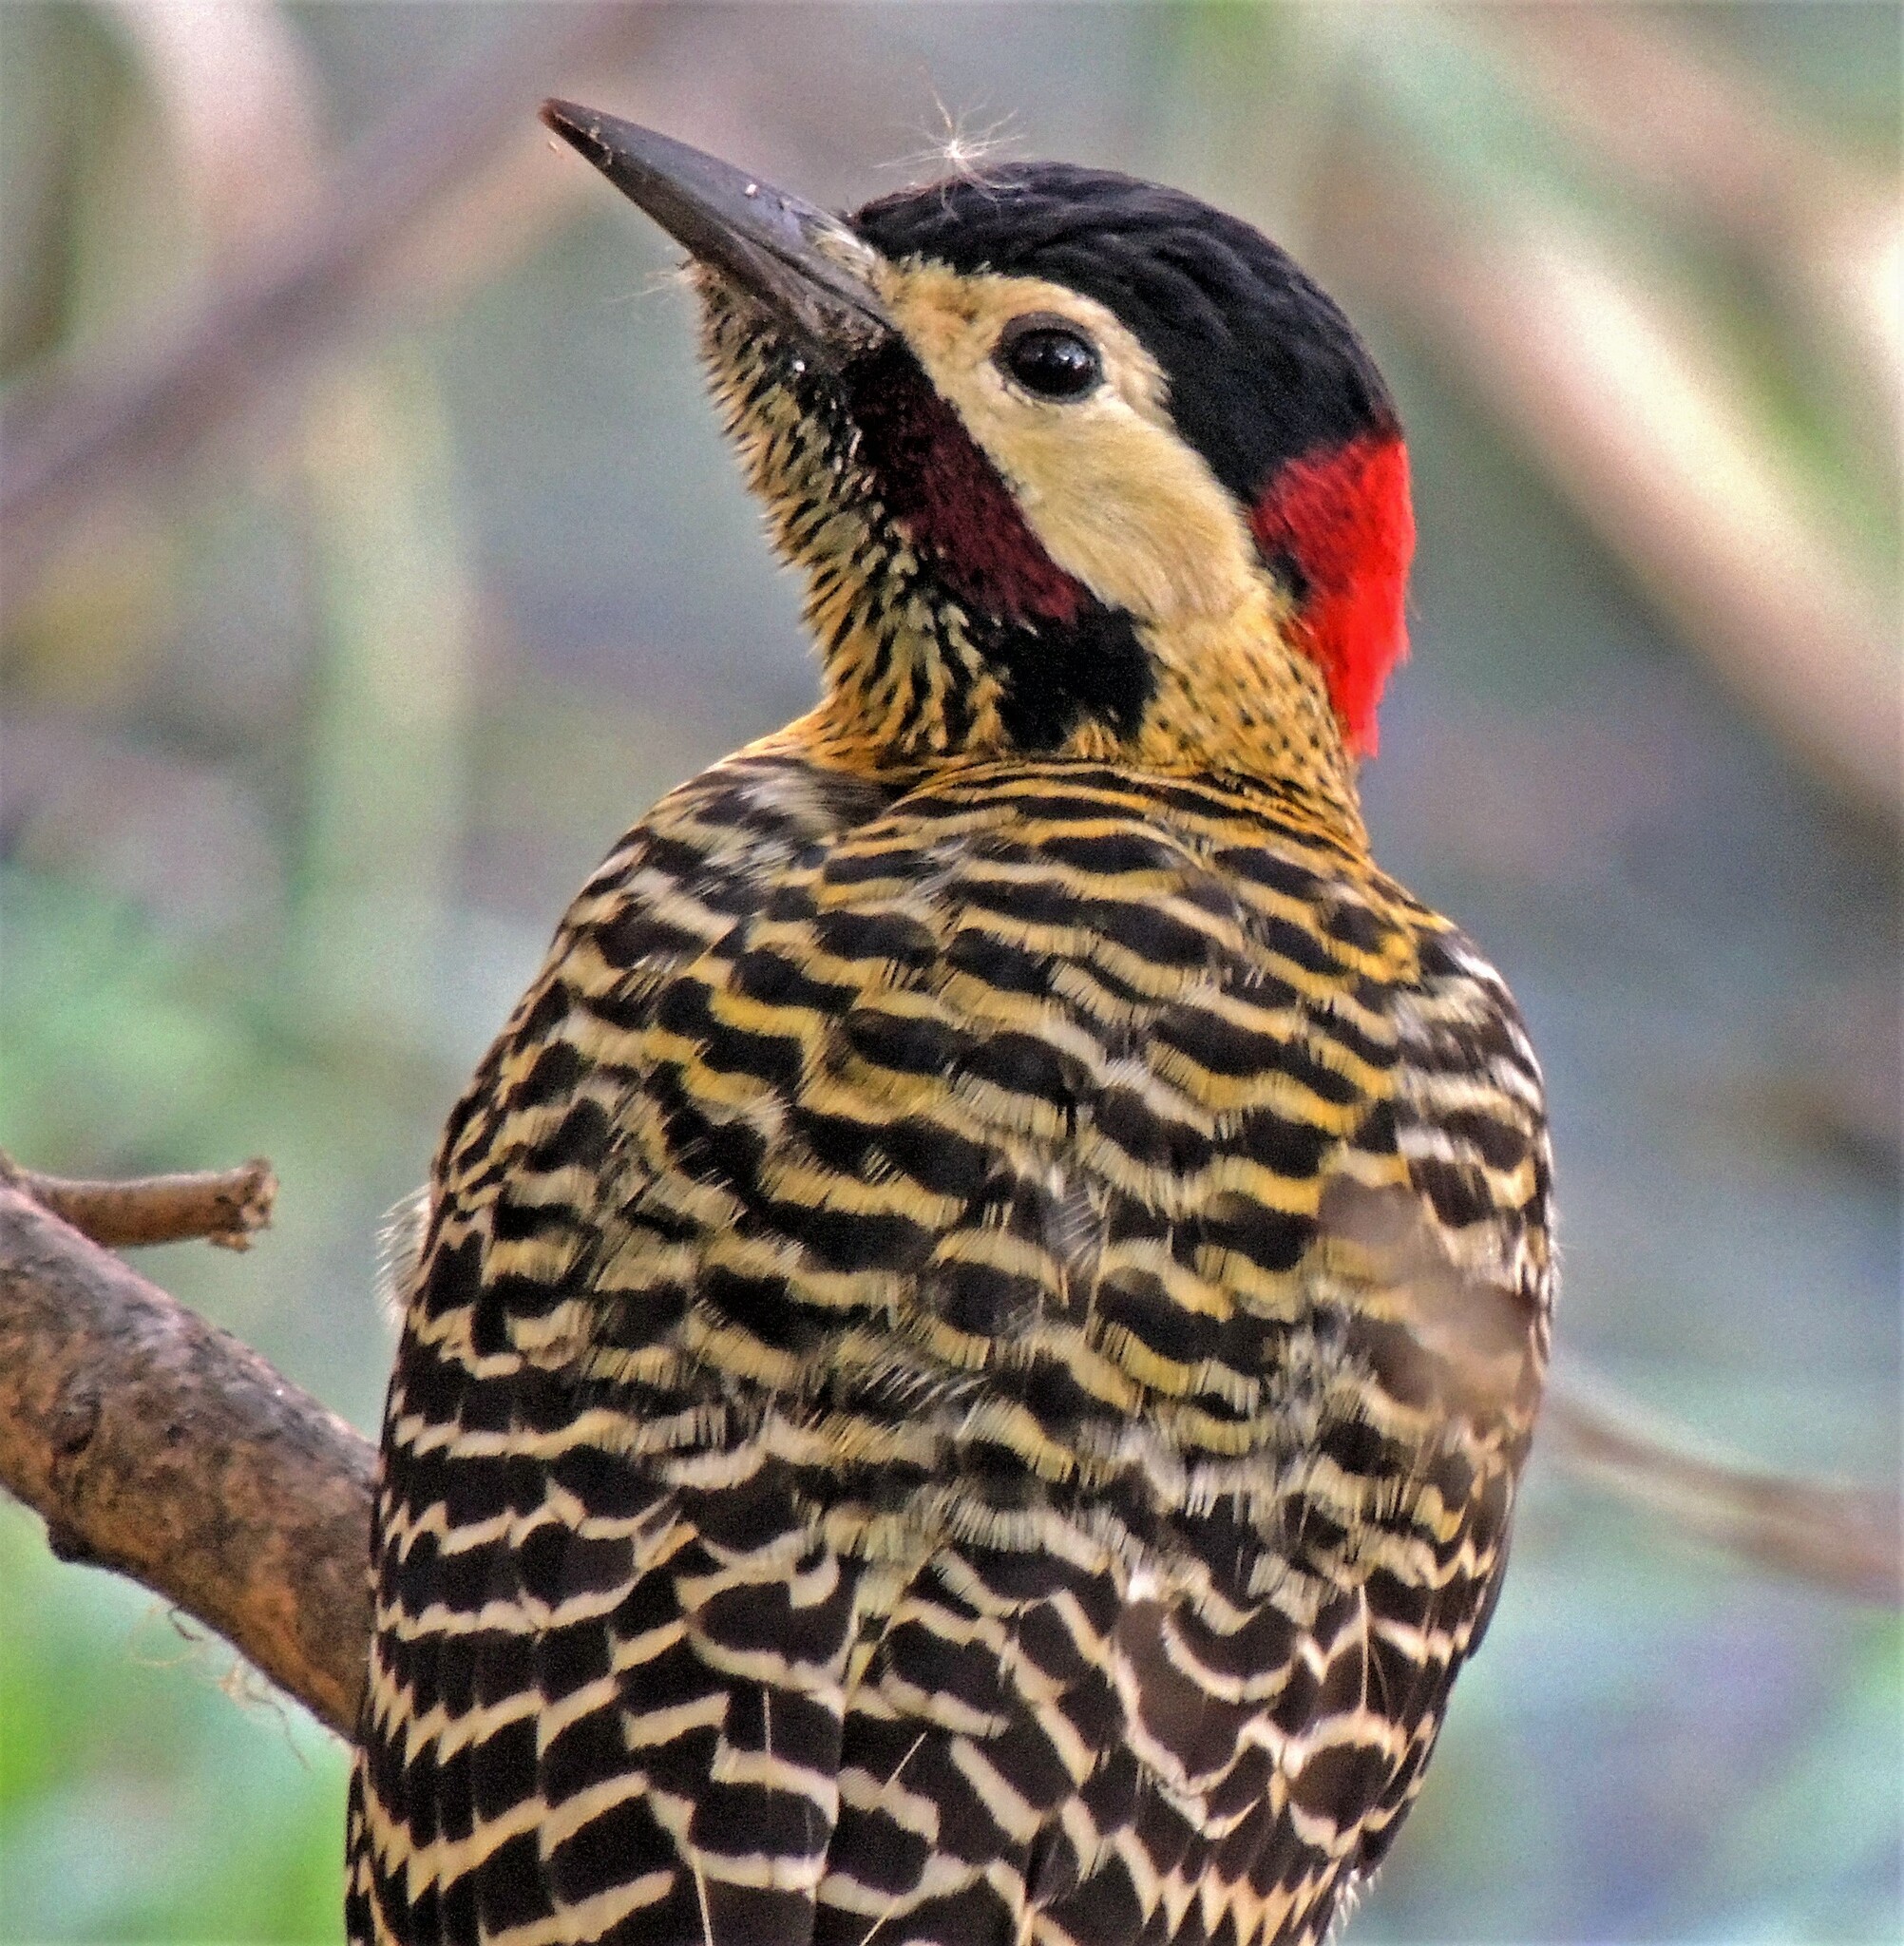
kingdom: Animalia
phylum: Chordata
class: Aves
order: Piciformes
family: Picidae
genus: Colaptes
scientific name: Colaptes melanochloros
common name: Green-barred woodpecker
